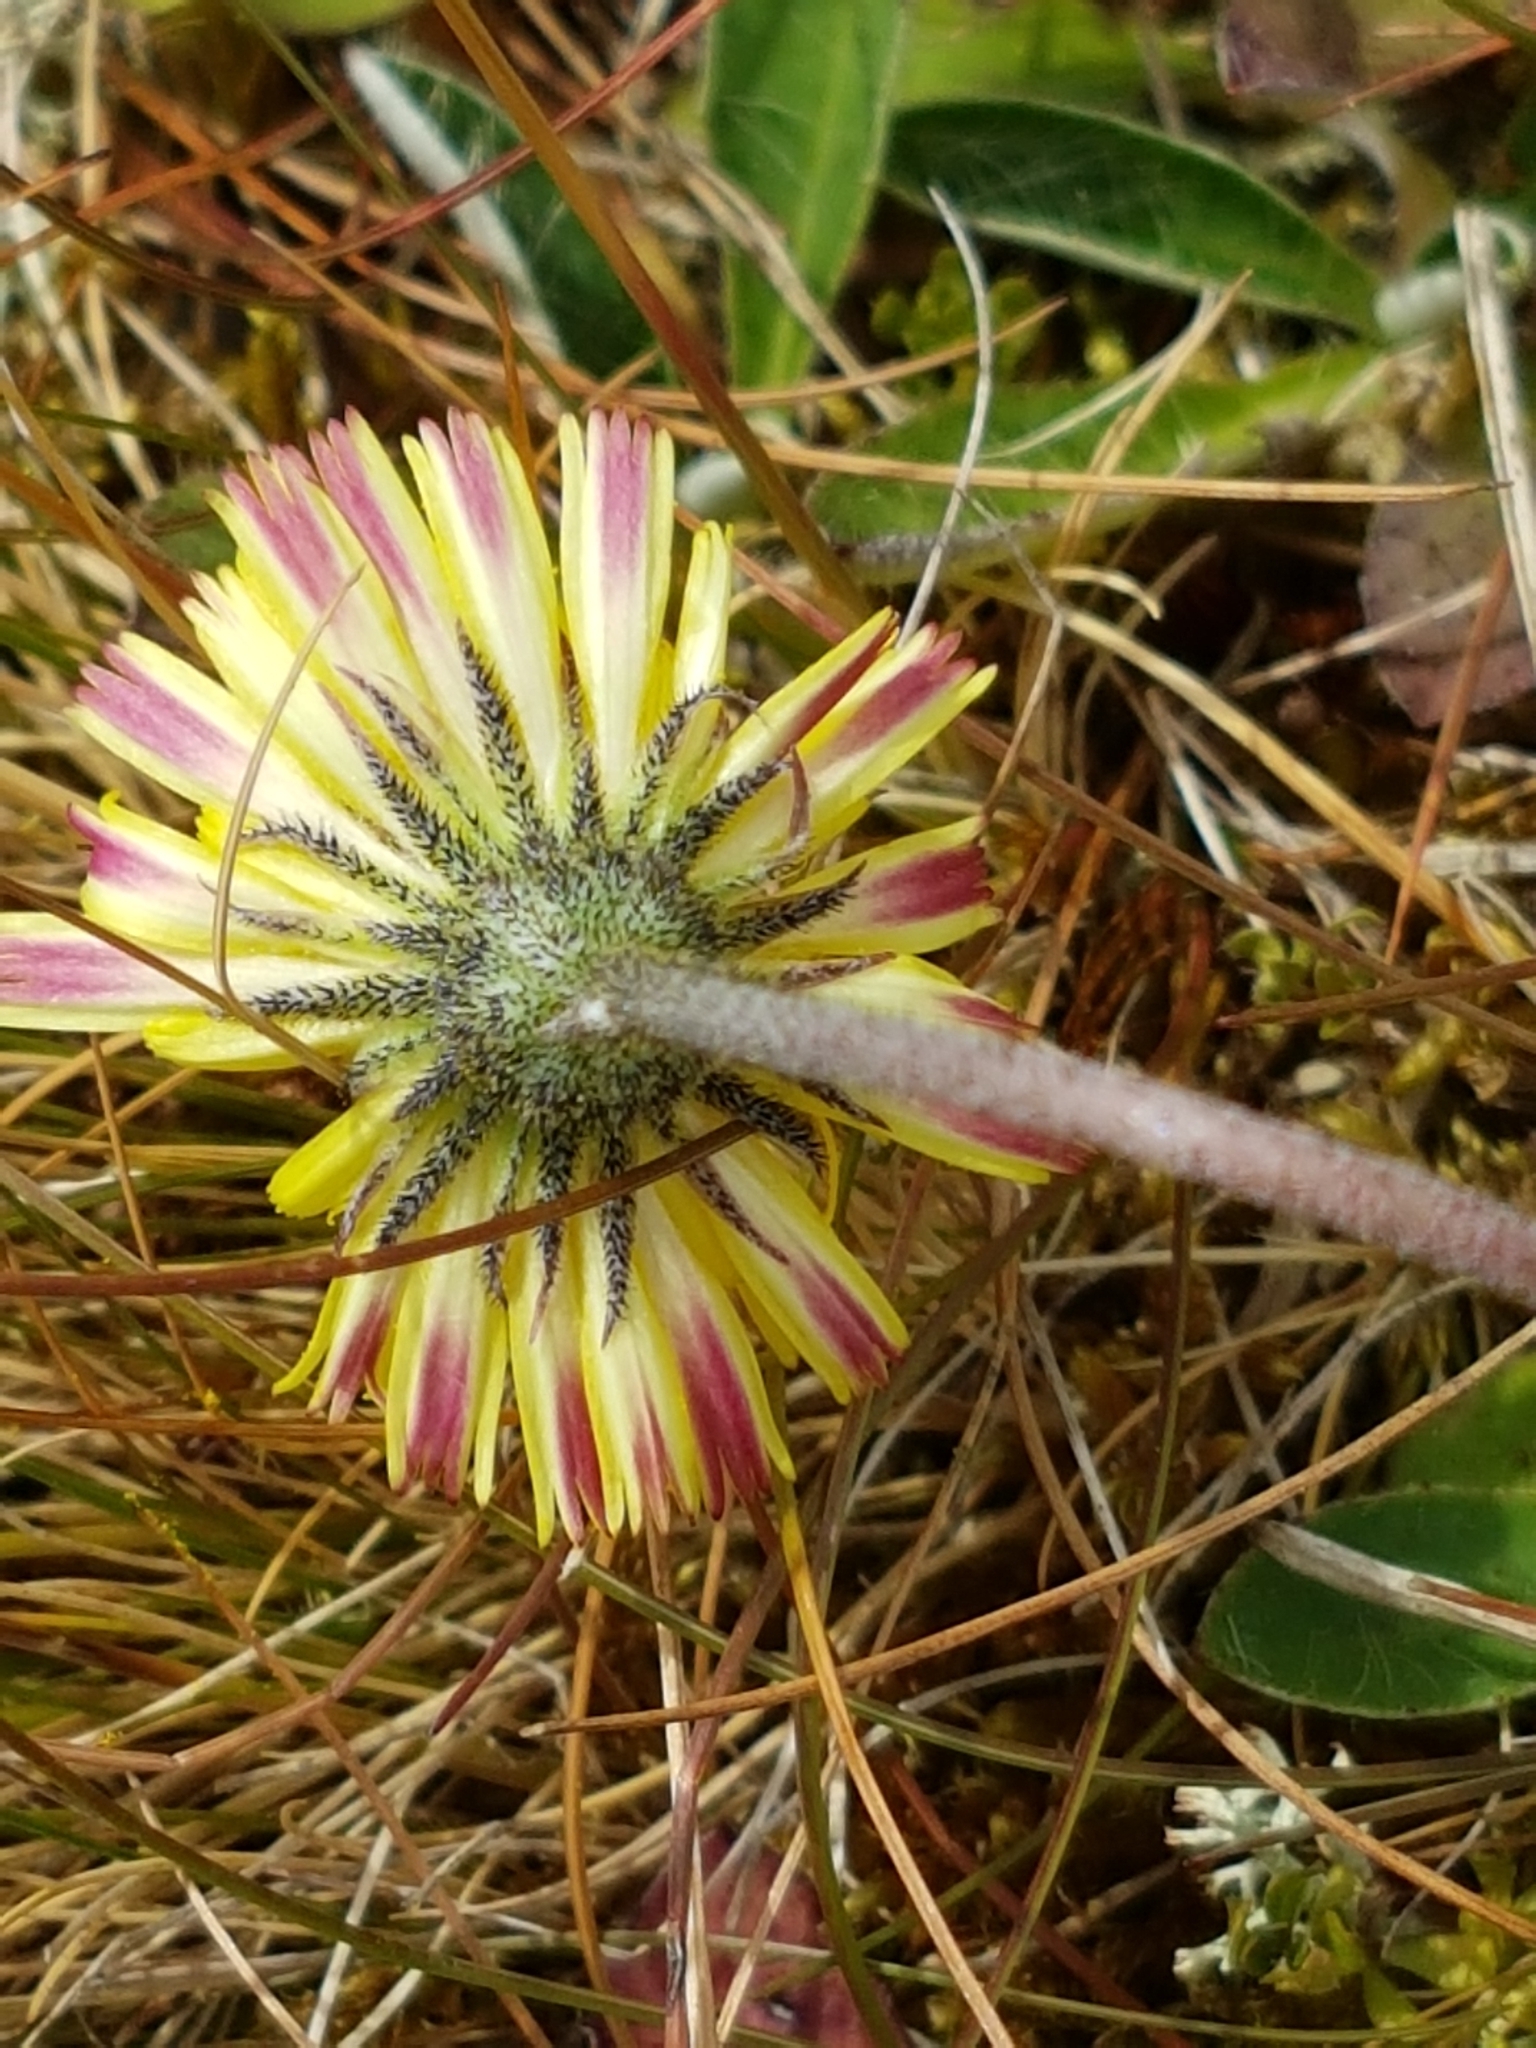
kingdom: Plantae
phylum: Tracheophyta
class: Magnoliopsida
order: Asterales
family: Asteraceae
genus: Pilosella
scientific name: Pilosella officinarum
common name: Mouse-ear hawkweed
